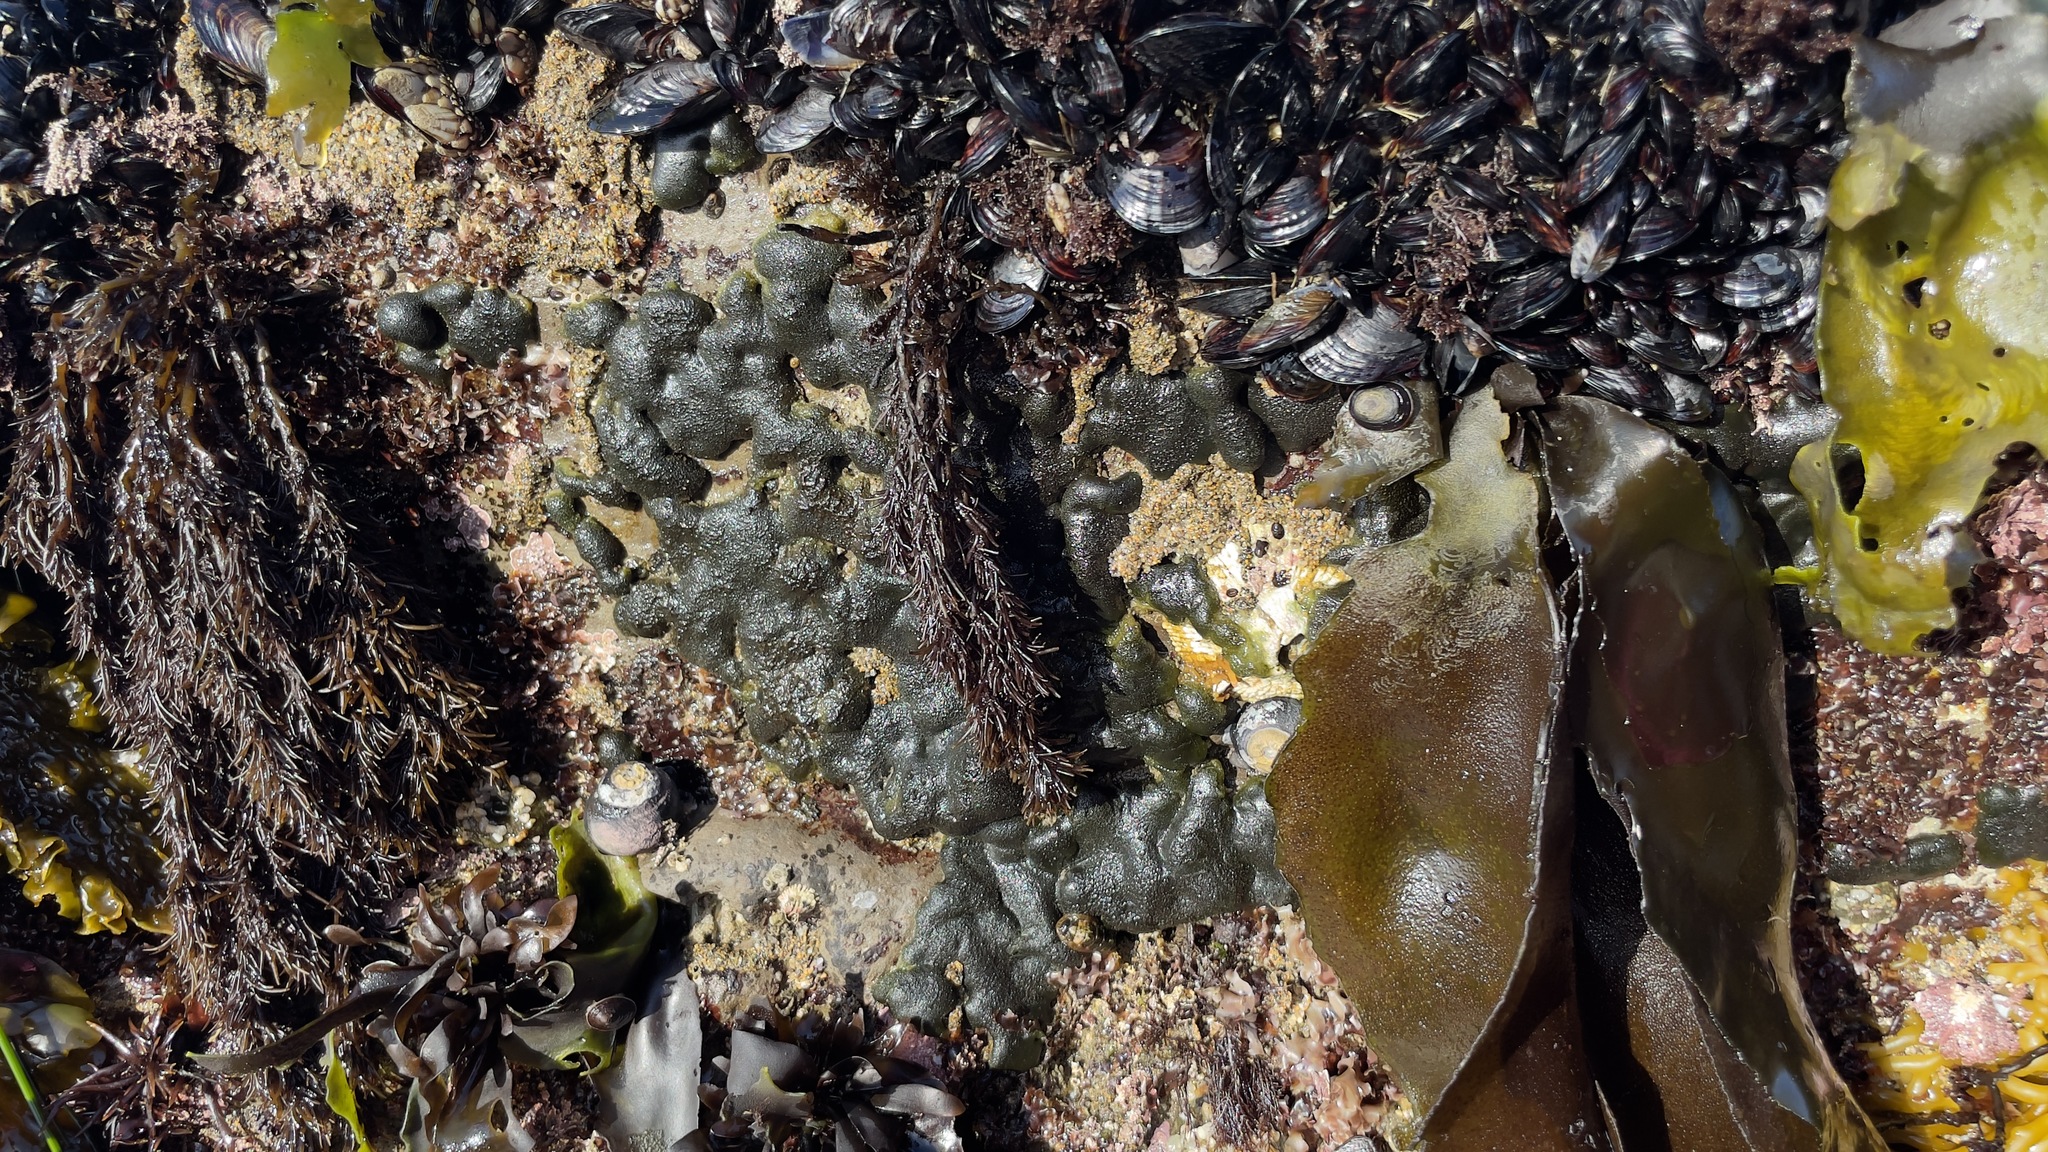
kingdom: Plantae
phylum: Chlorophyta
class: Ulvophyceae
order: Bryopsidales
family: Codiaceae
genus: Codium
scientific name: Codium setchellii
